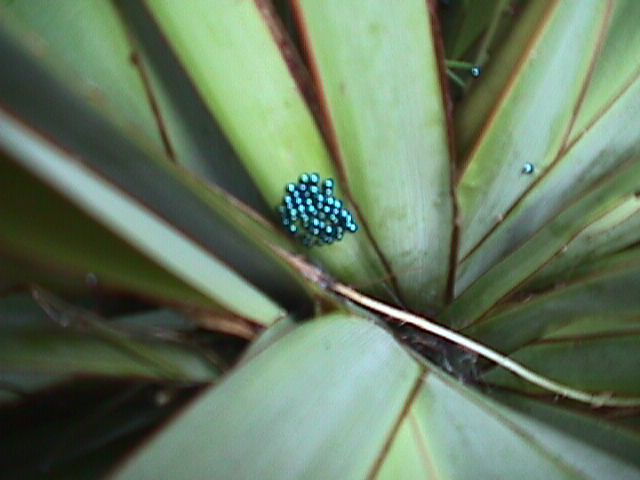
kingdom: Animalia
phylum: Arthropoda
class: Insecta
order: Coleoptera
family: Coccinellidae
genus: Halmus
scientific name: Halmus chalybeus
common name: Steel blue ladybird beetle
